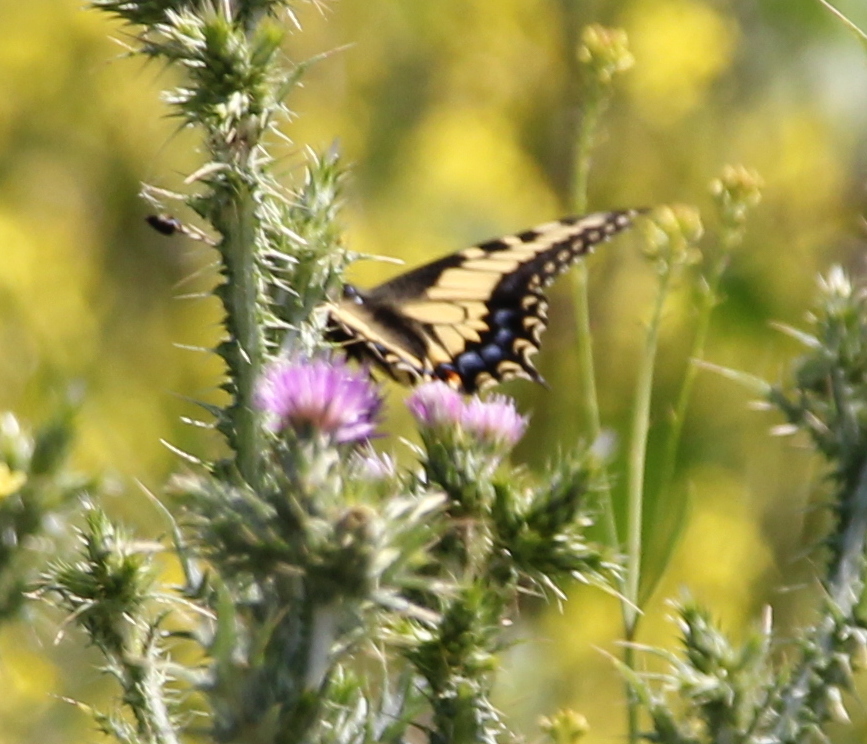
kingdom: Animalia
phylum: Arthropoda
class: Insecta
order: Lepidoptera
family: Papilionidae
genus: Papilio
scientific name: Papilio zelicaon
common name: Anise swallowtail
